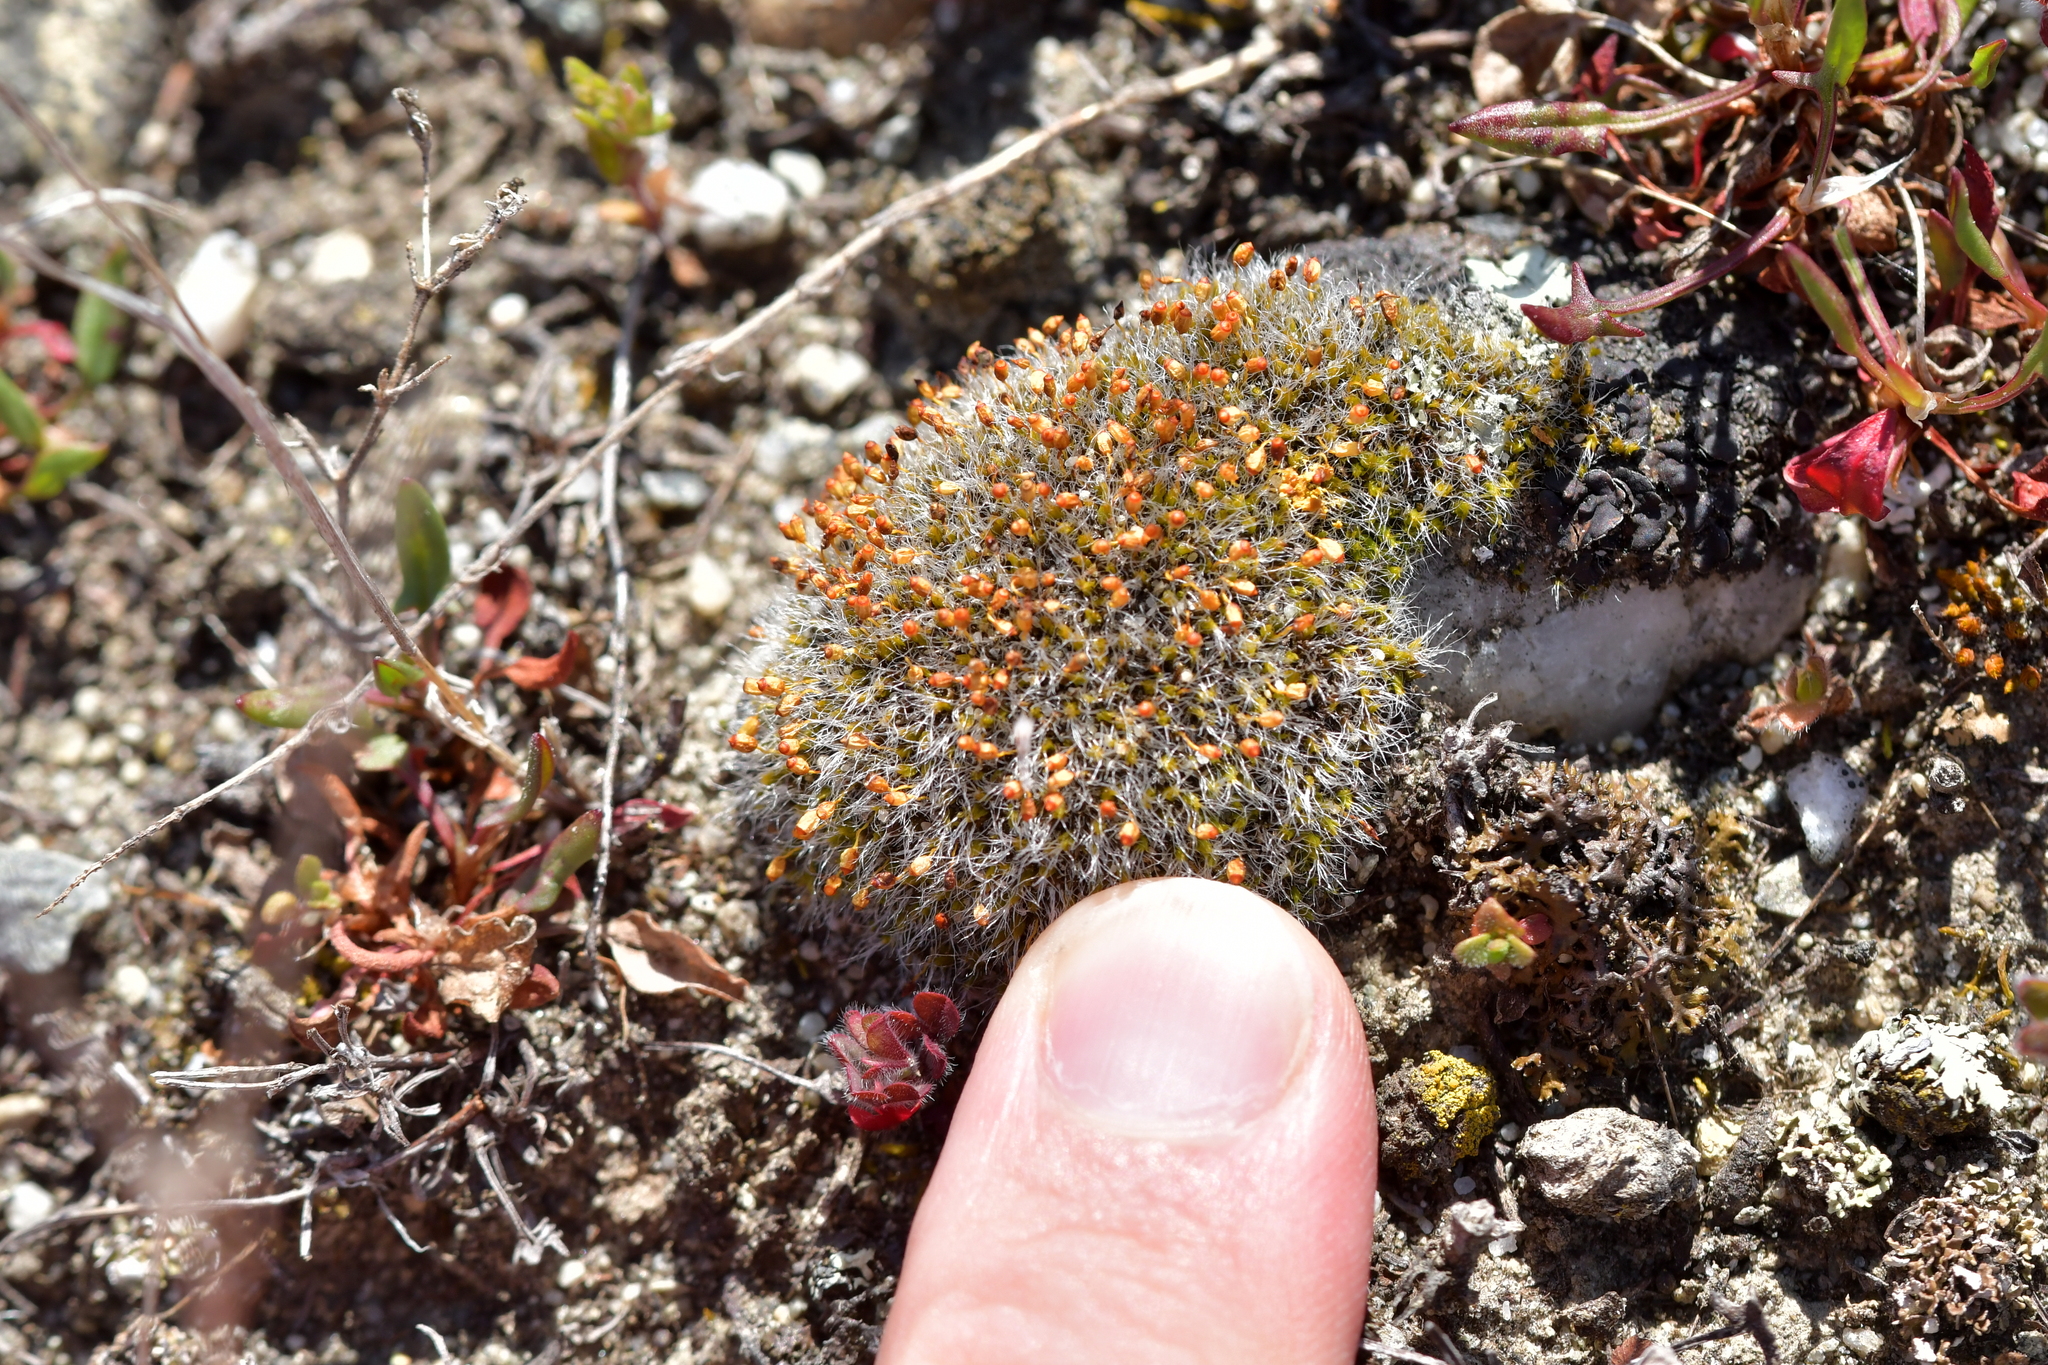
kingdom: Plantae
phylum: Bryophyta
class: Bryopsida
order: Grimmiales
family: Grimmiaceae
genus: Grimmia
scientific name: Grimmia pulvinata
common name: Grey-cushioned grimmia
